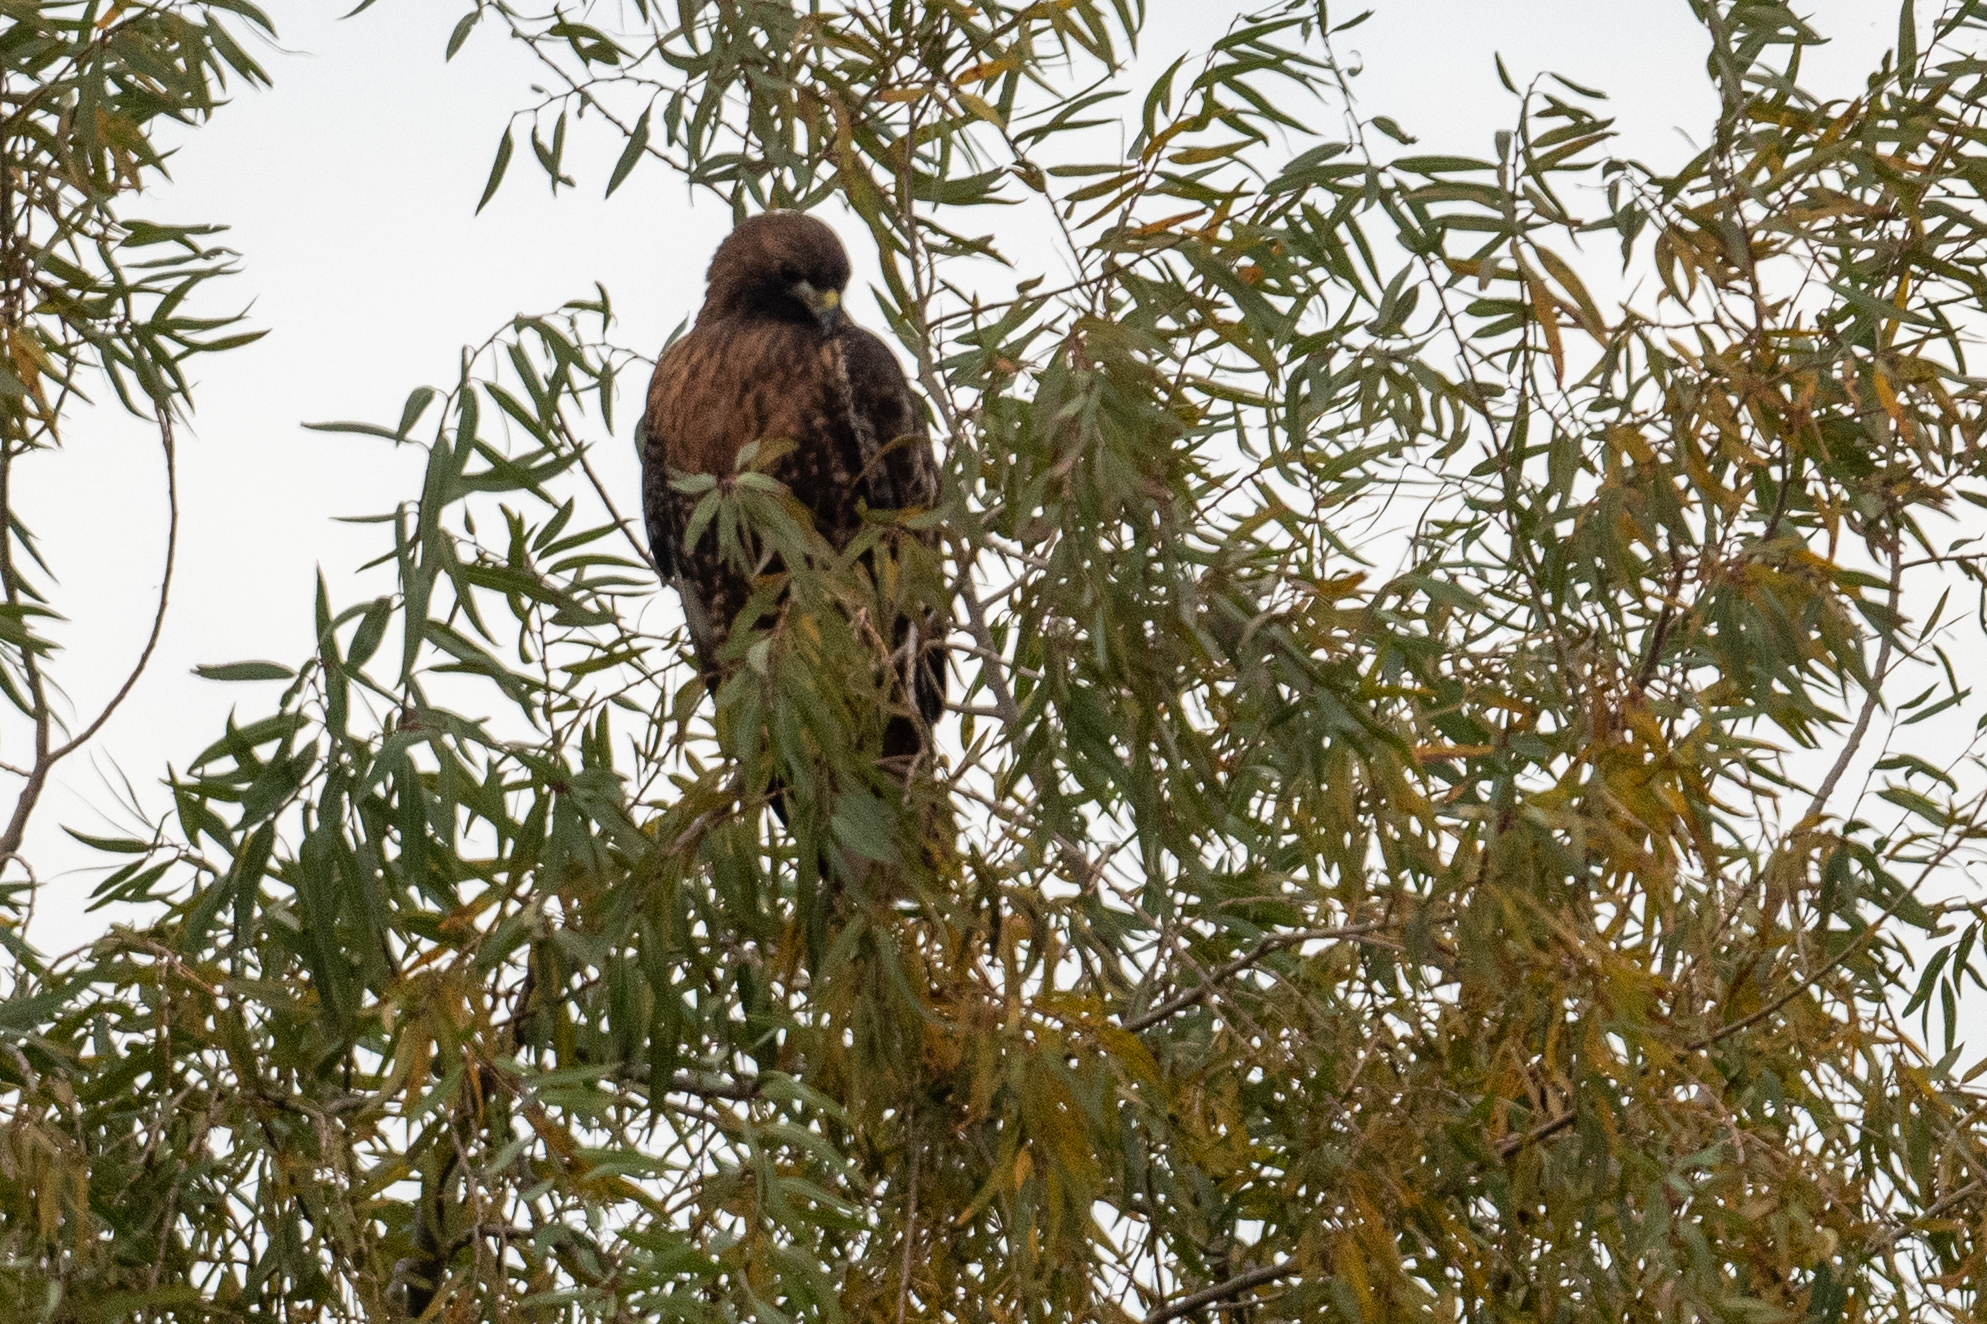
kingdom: Animalia
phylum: Chordata
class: Aves
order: Accipitriformes
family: Accipitridae
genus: Buteo
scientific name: Buteo jamaicensis
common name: Red-tailed hawk
